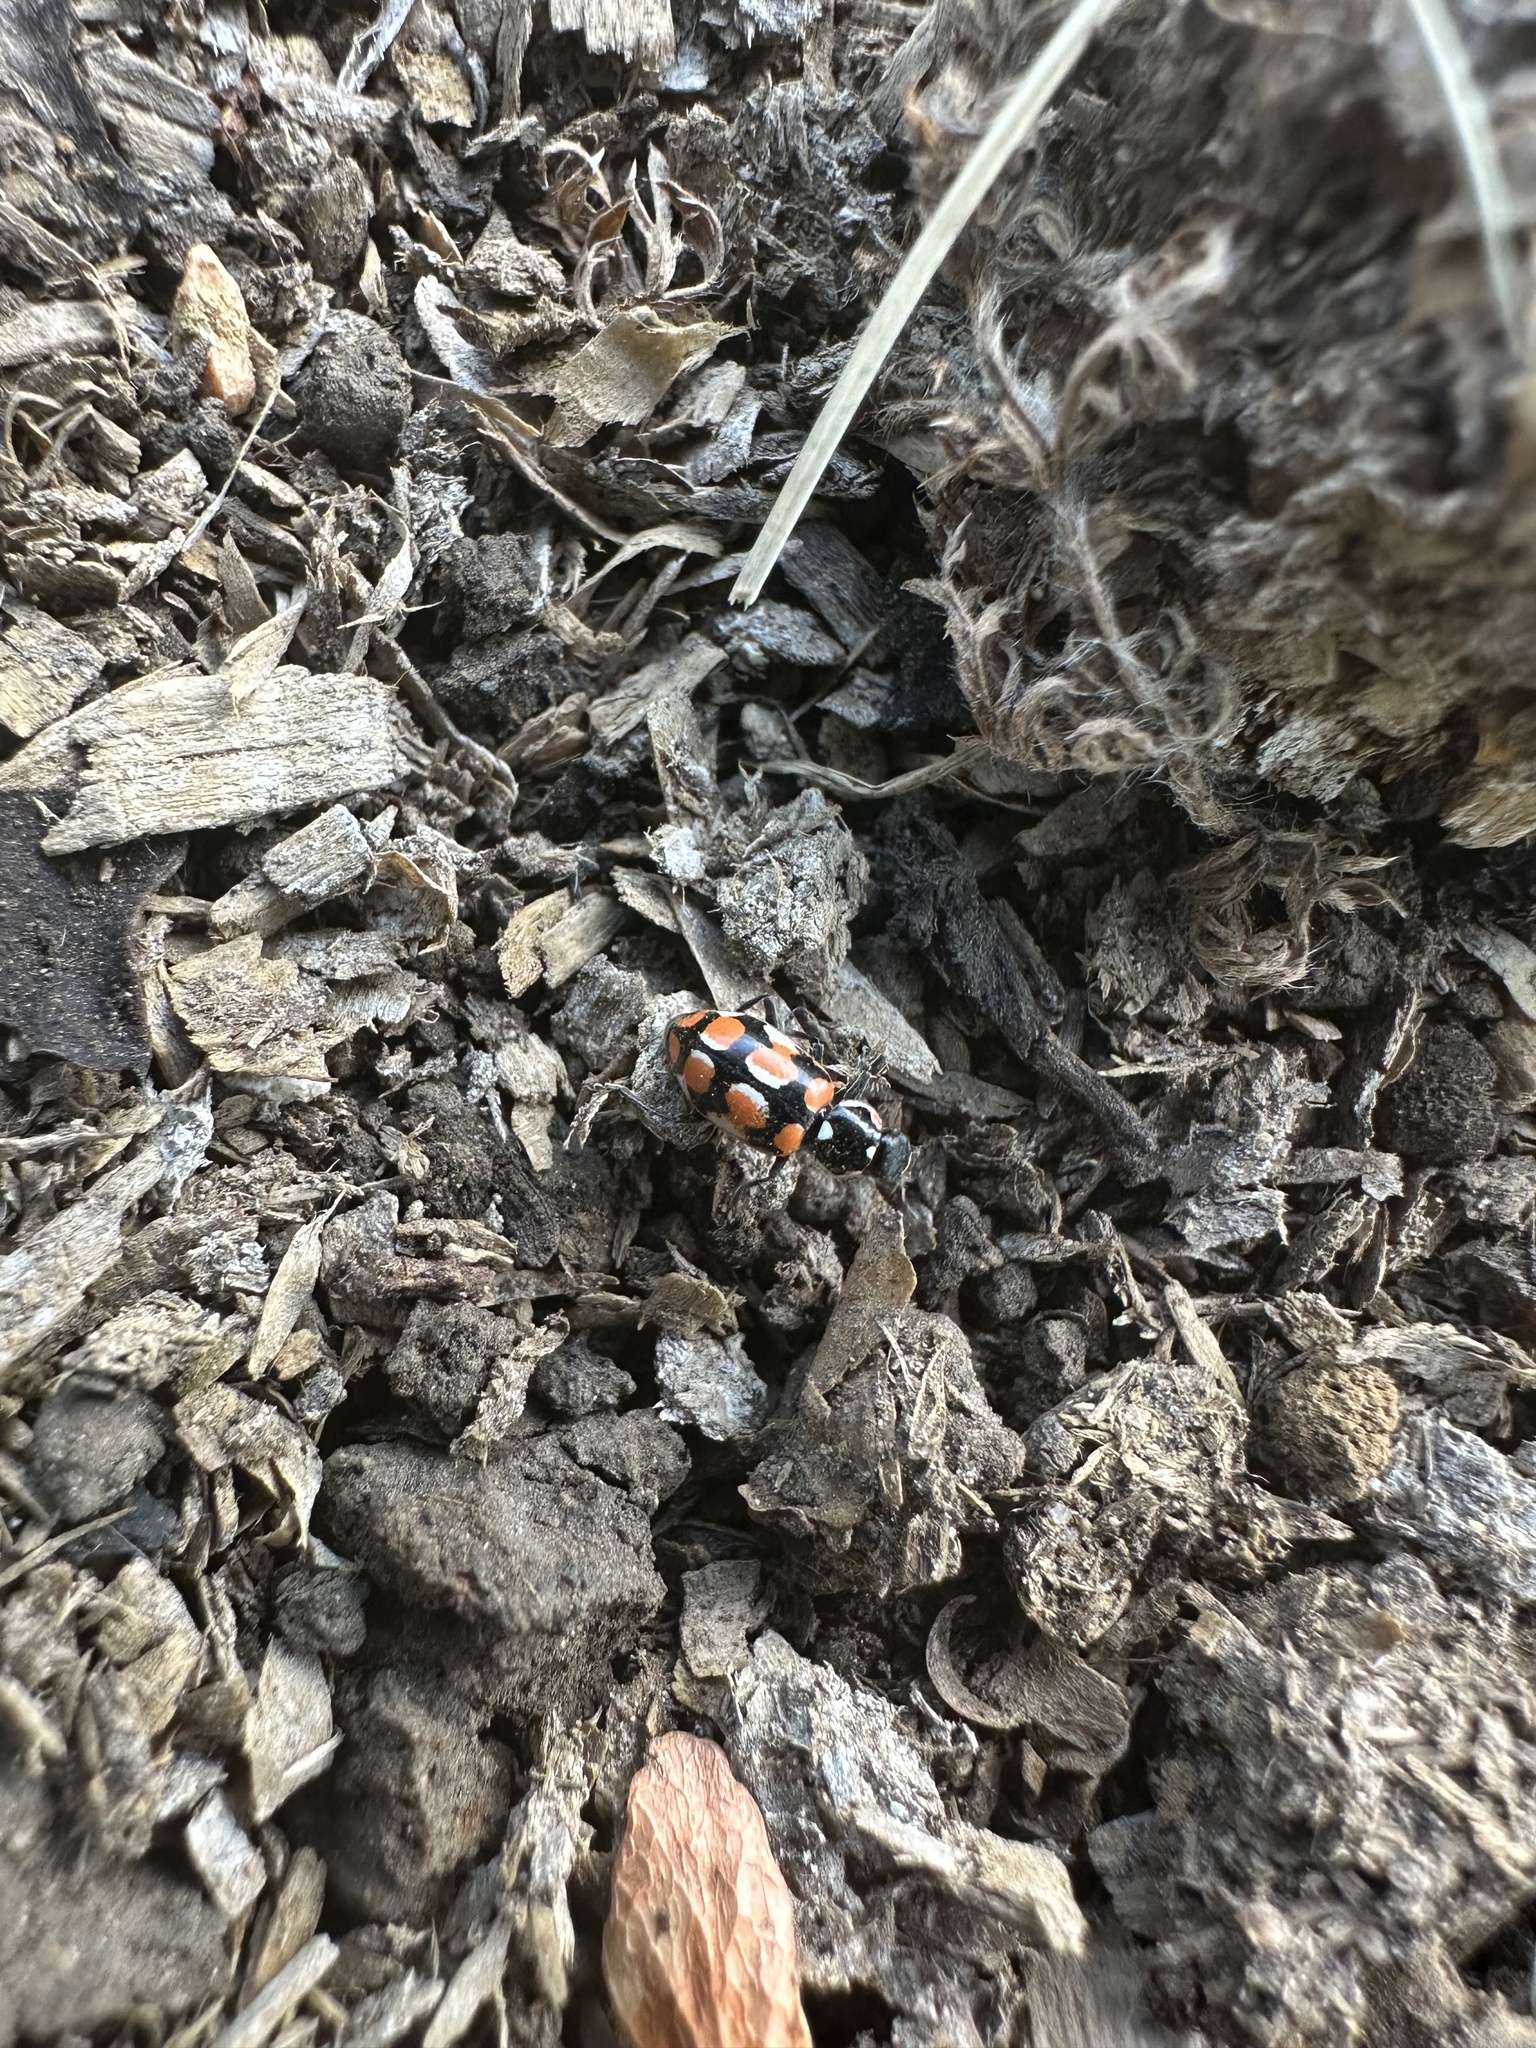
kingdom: Animalia
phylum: Arthropoda
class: Insecta
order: Coleoptera
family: Coccinellidae
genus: Eriopis
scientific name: Eriopis chilensis
